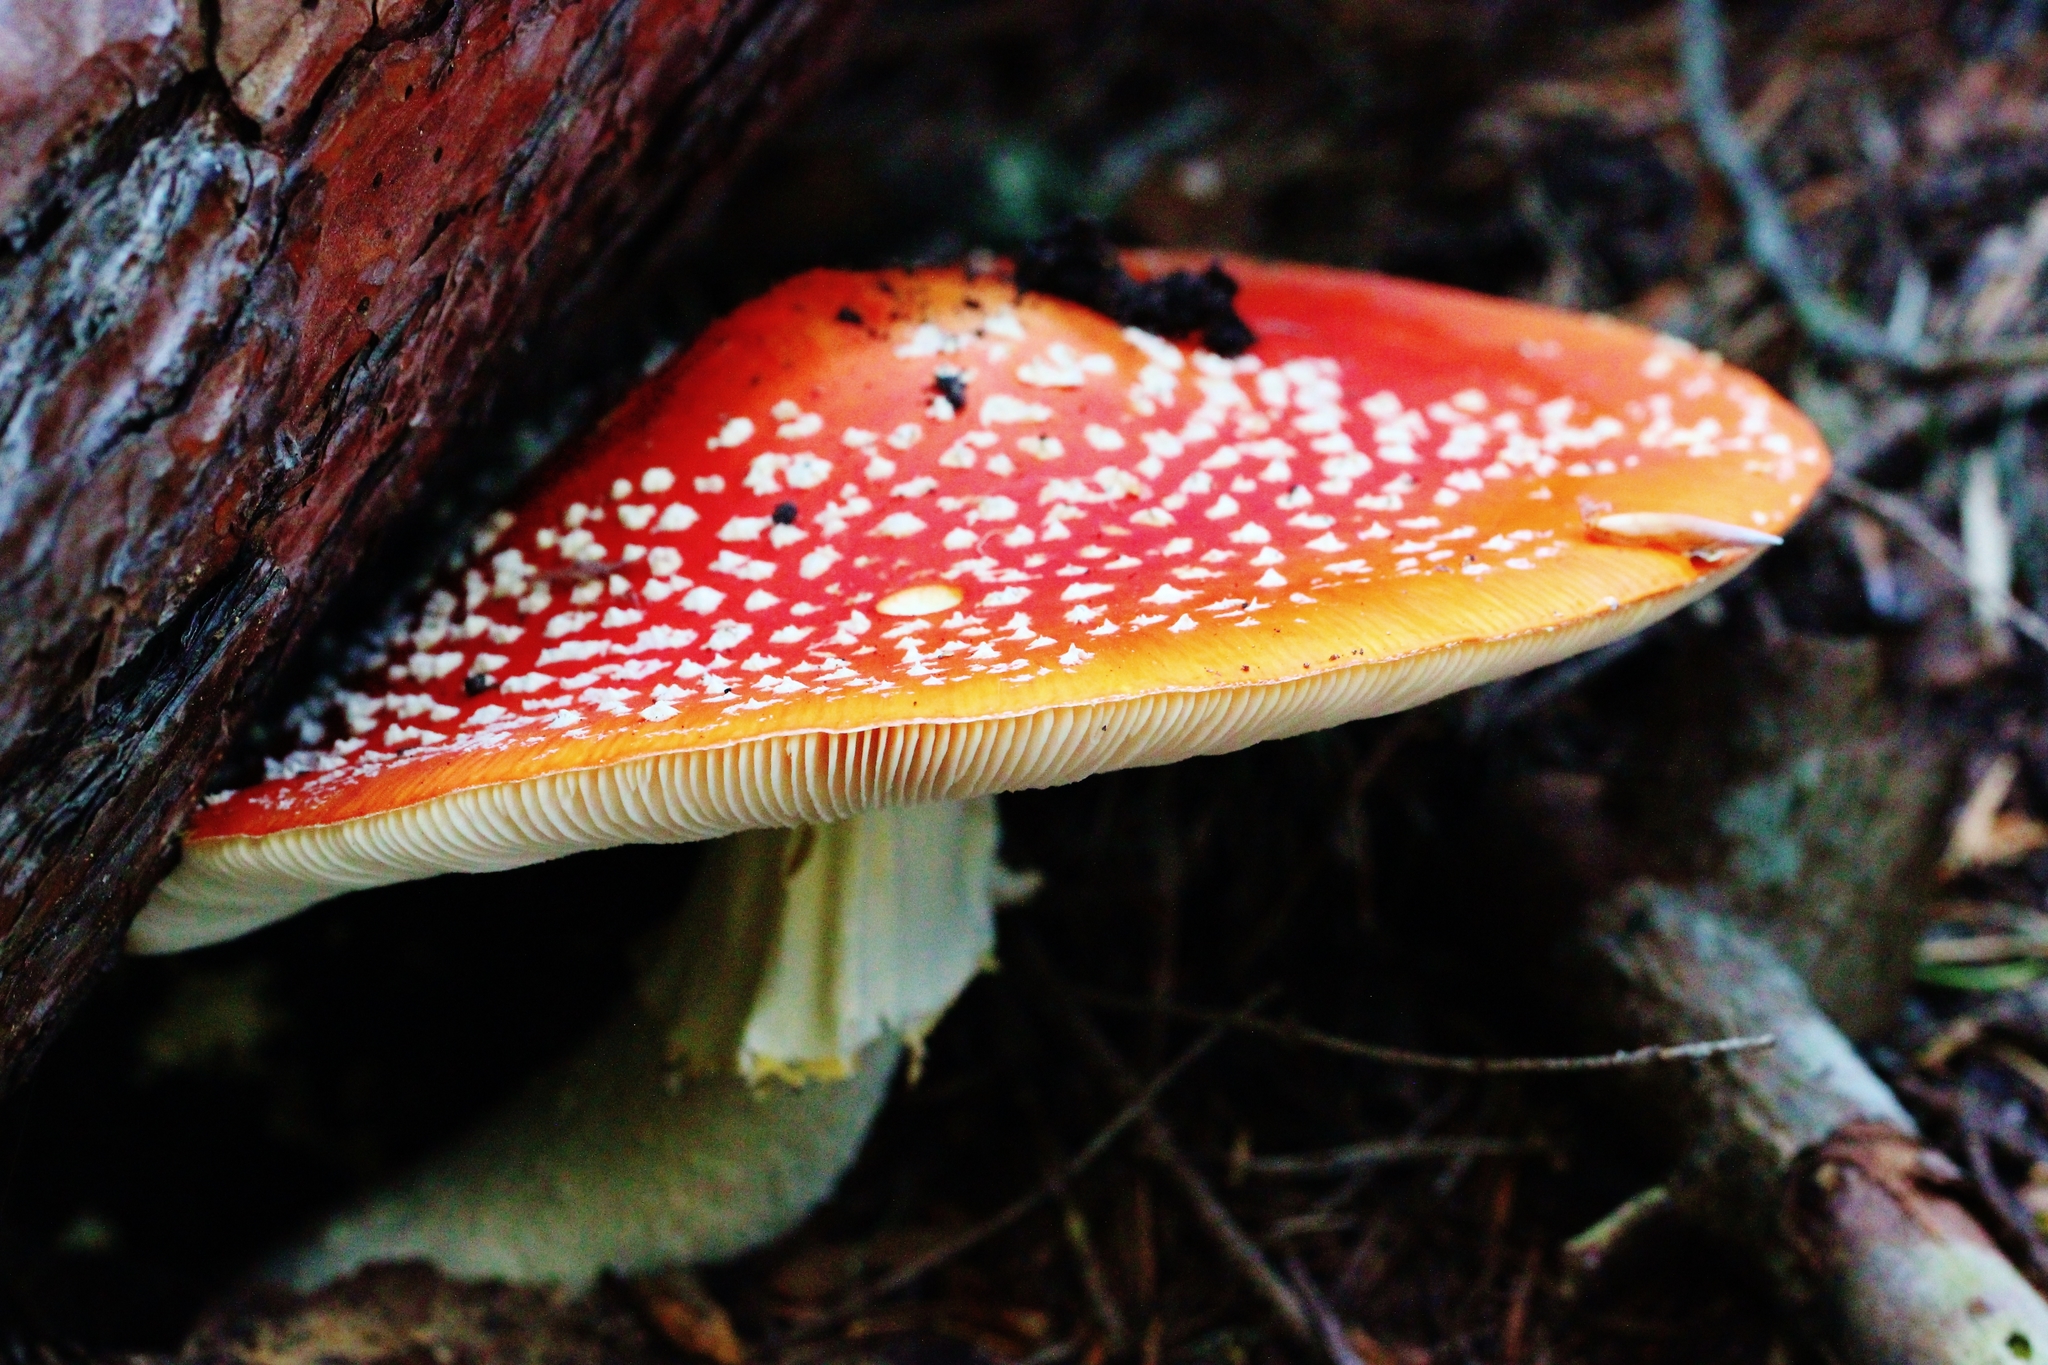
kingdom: Fungi
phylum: Basidiomycota
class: Agaricomycetes
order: Agaricales
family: Amanitaceae
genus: Amanita
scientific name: Amanita muscaria
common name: Fly agaric
